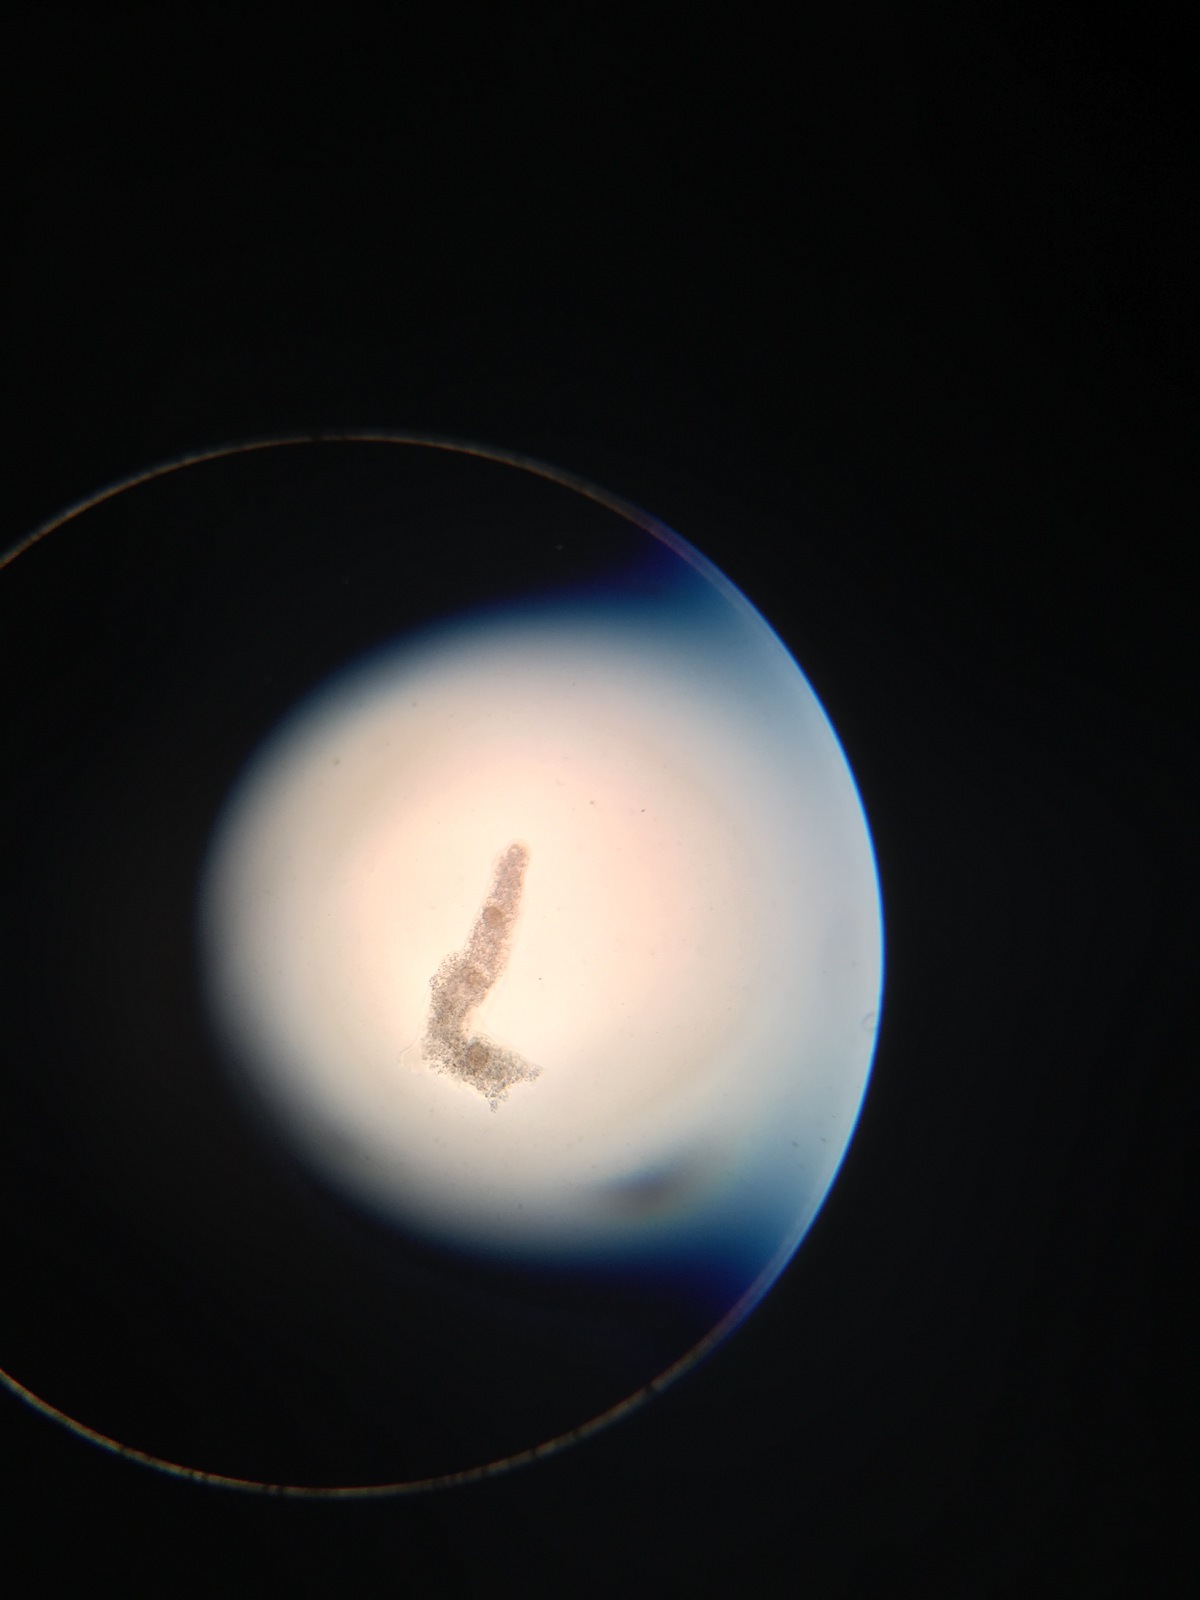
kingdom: Protozoa
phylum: Amoebozoa
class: Lobosa
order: Amoebida
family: Amoebidae
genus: Amoeba
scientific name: Amoeba proteus
